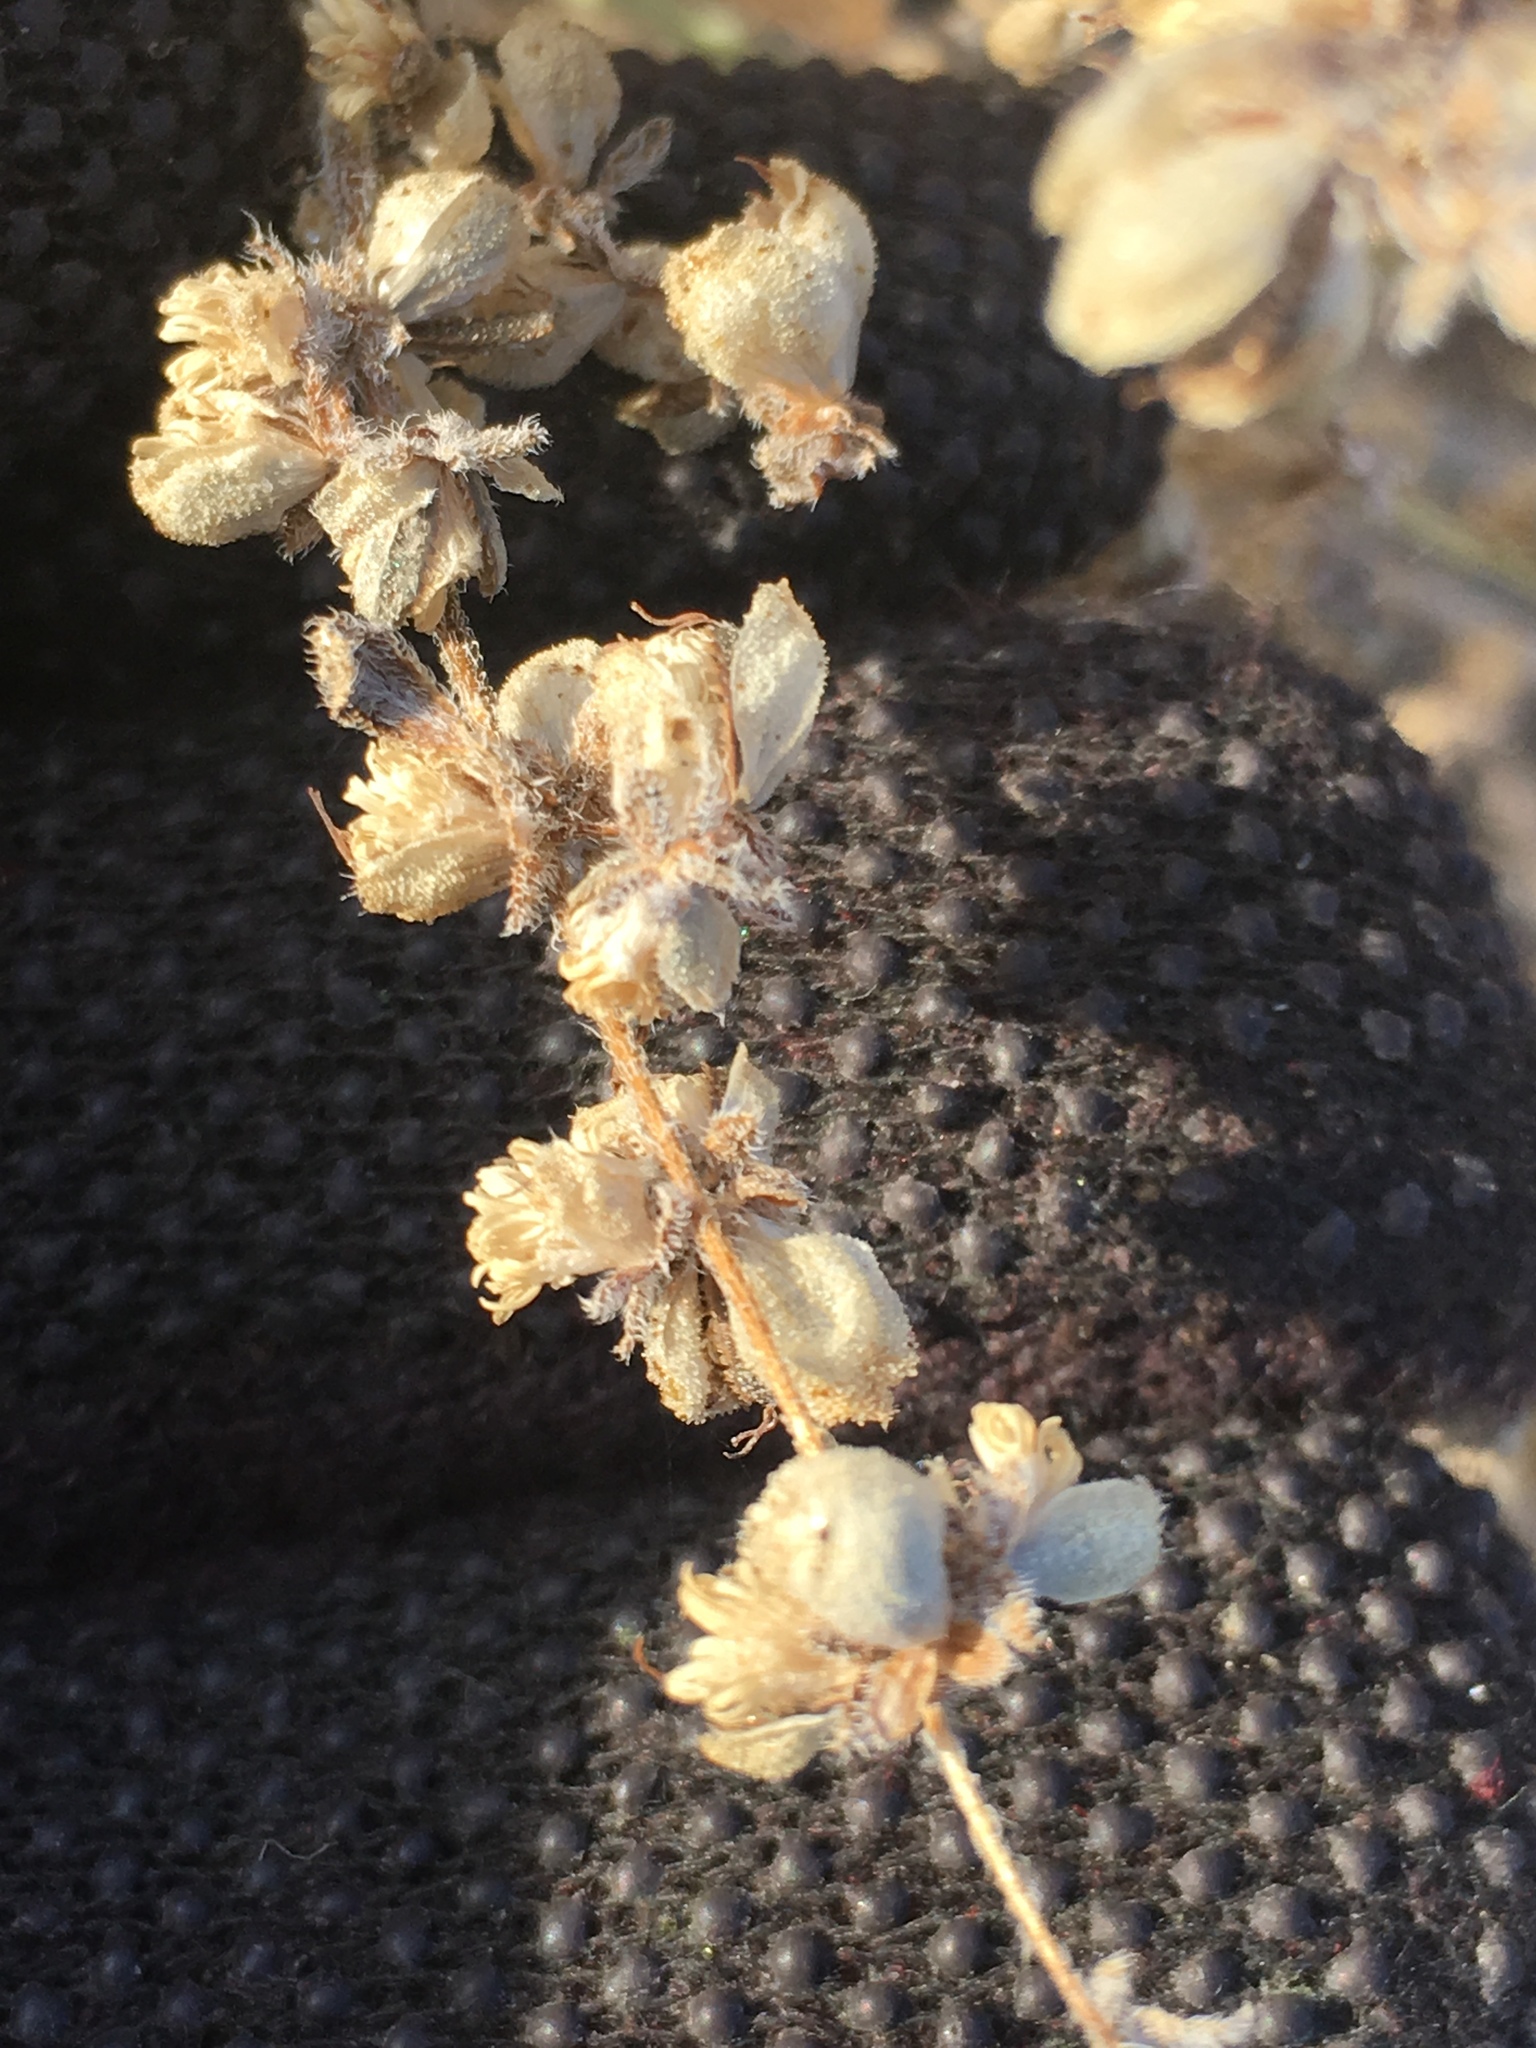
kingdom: Plantae
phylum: Tracheophyta
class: Magnoliopsida
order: Asterales
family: Asteraceae
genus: Dicoria
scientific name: Dicoria canescens
